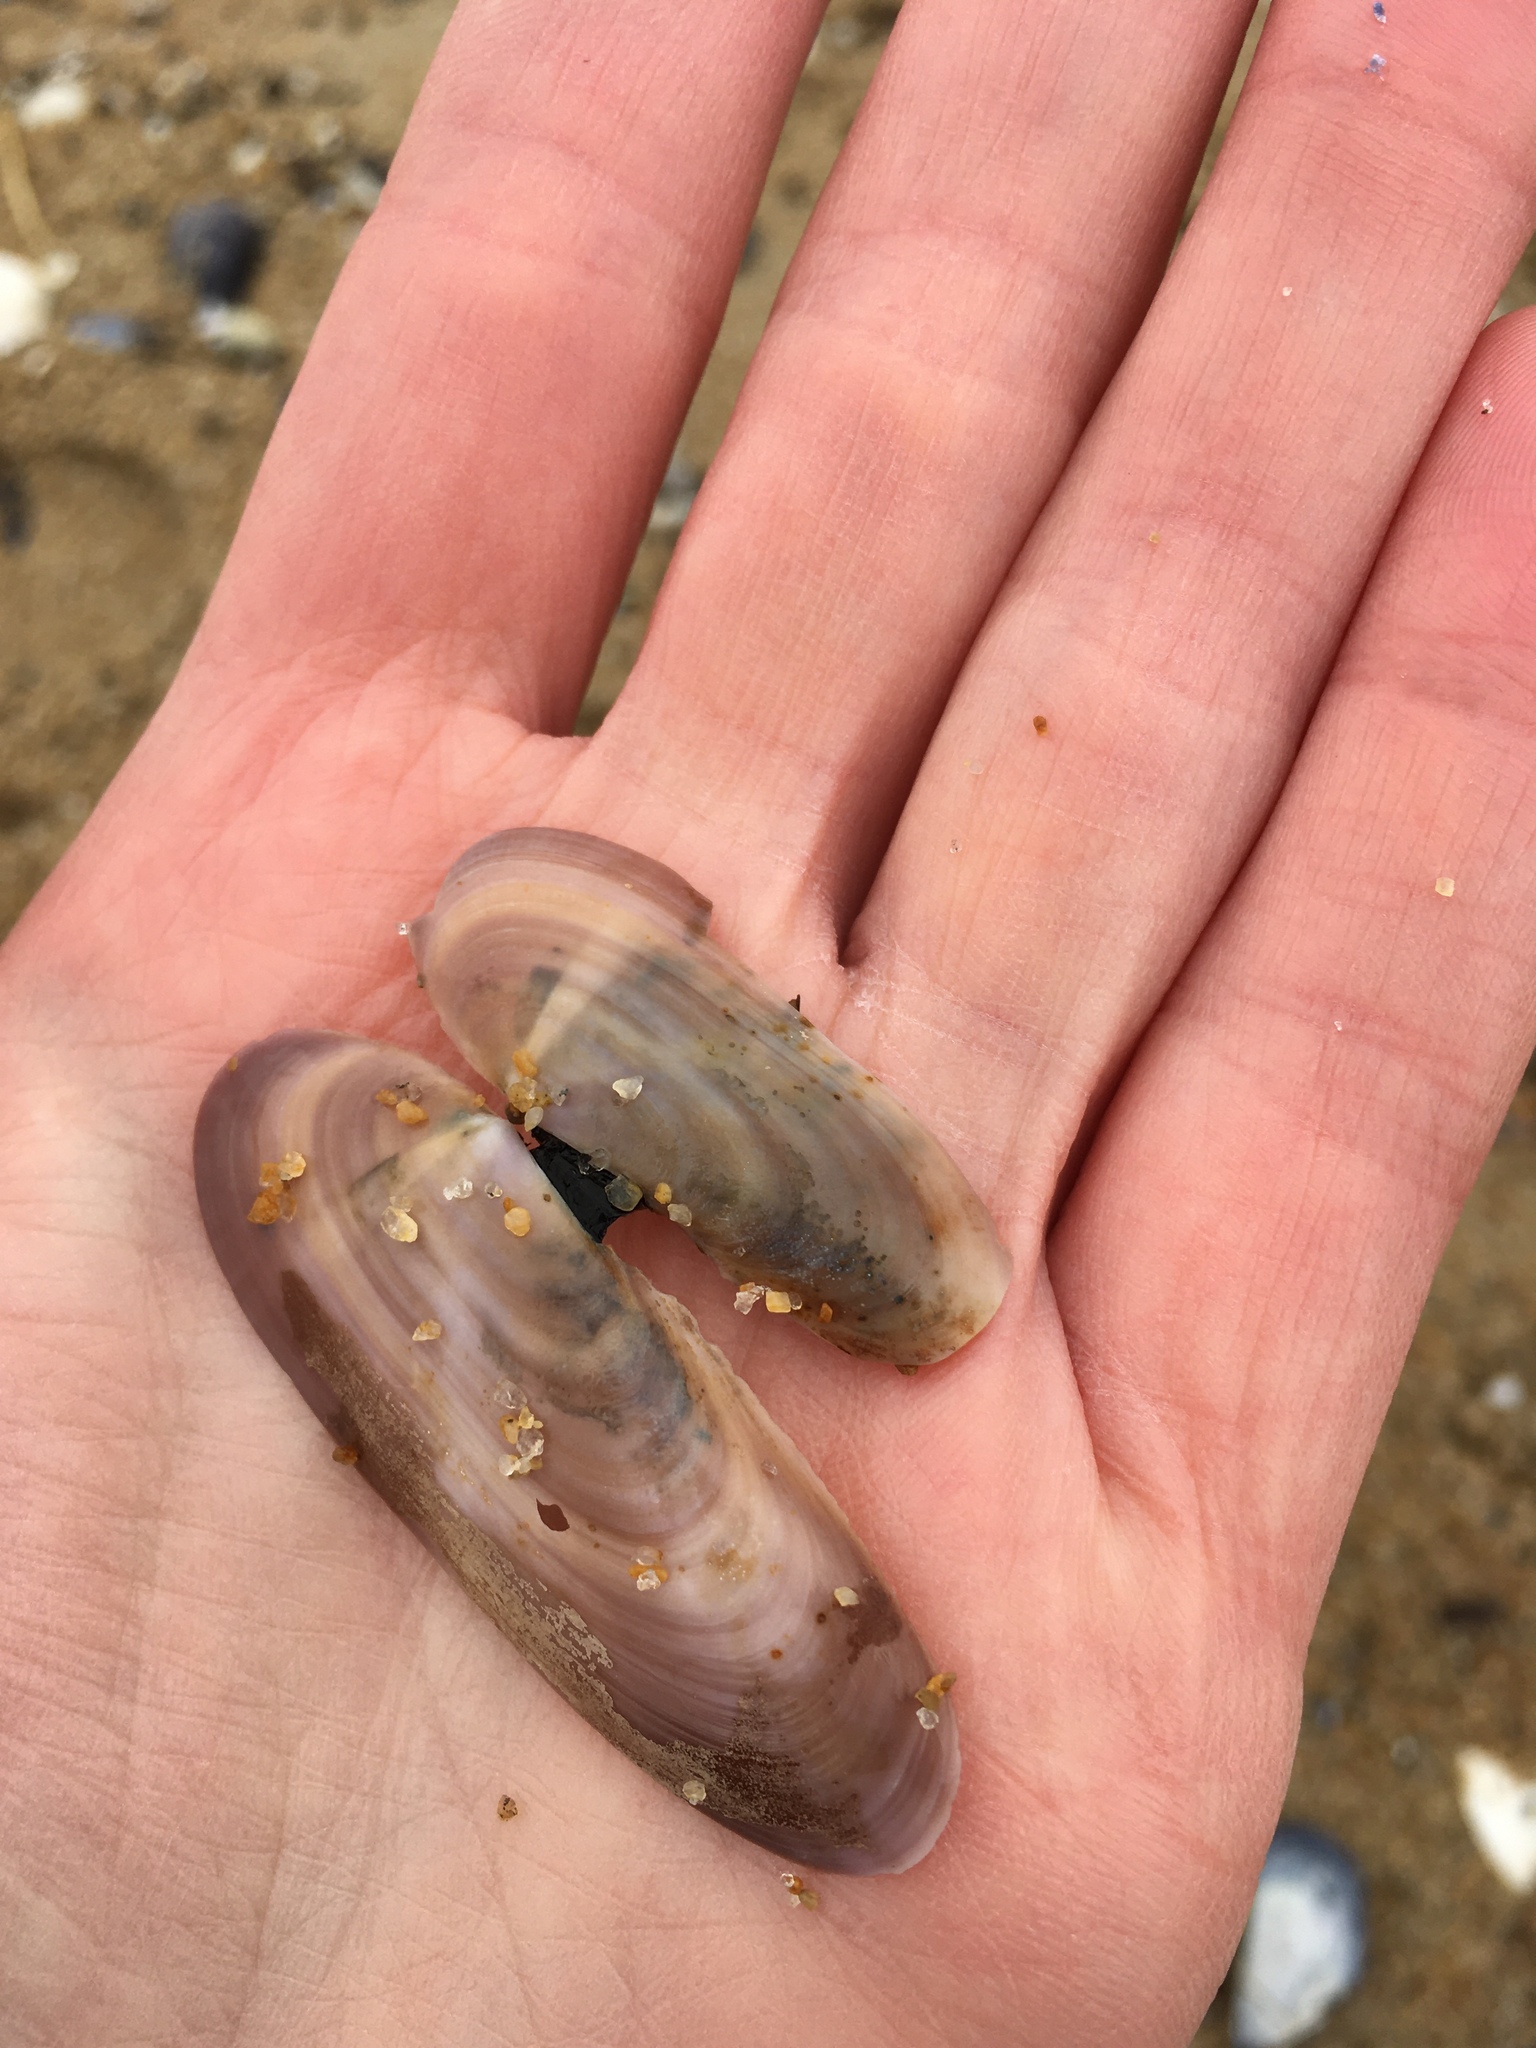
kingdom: Animalia
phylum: Mollusca
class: Bivalvia
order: Adapedonta
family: Pharidae
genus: Siliqua
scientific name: Siliqua costata
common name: Atlantic razor
